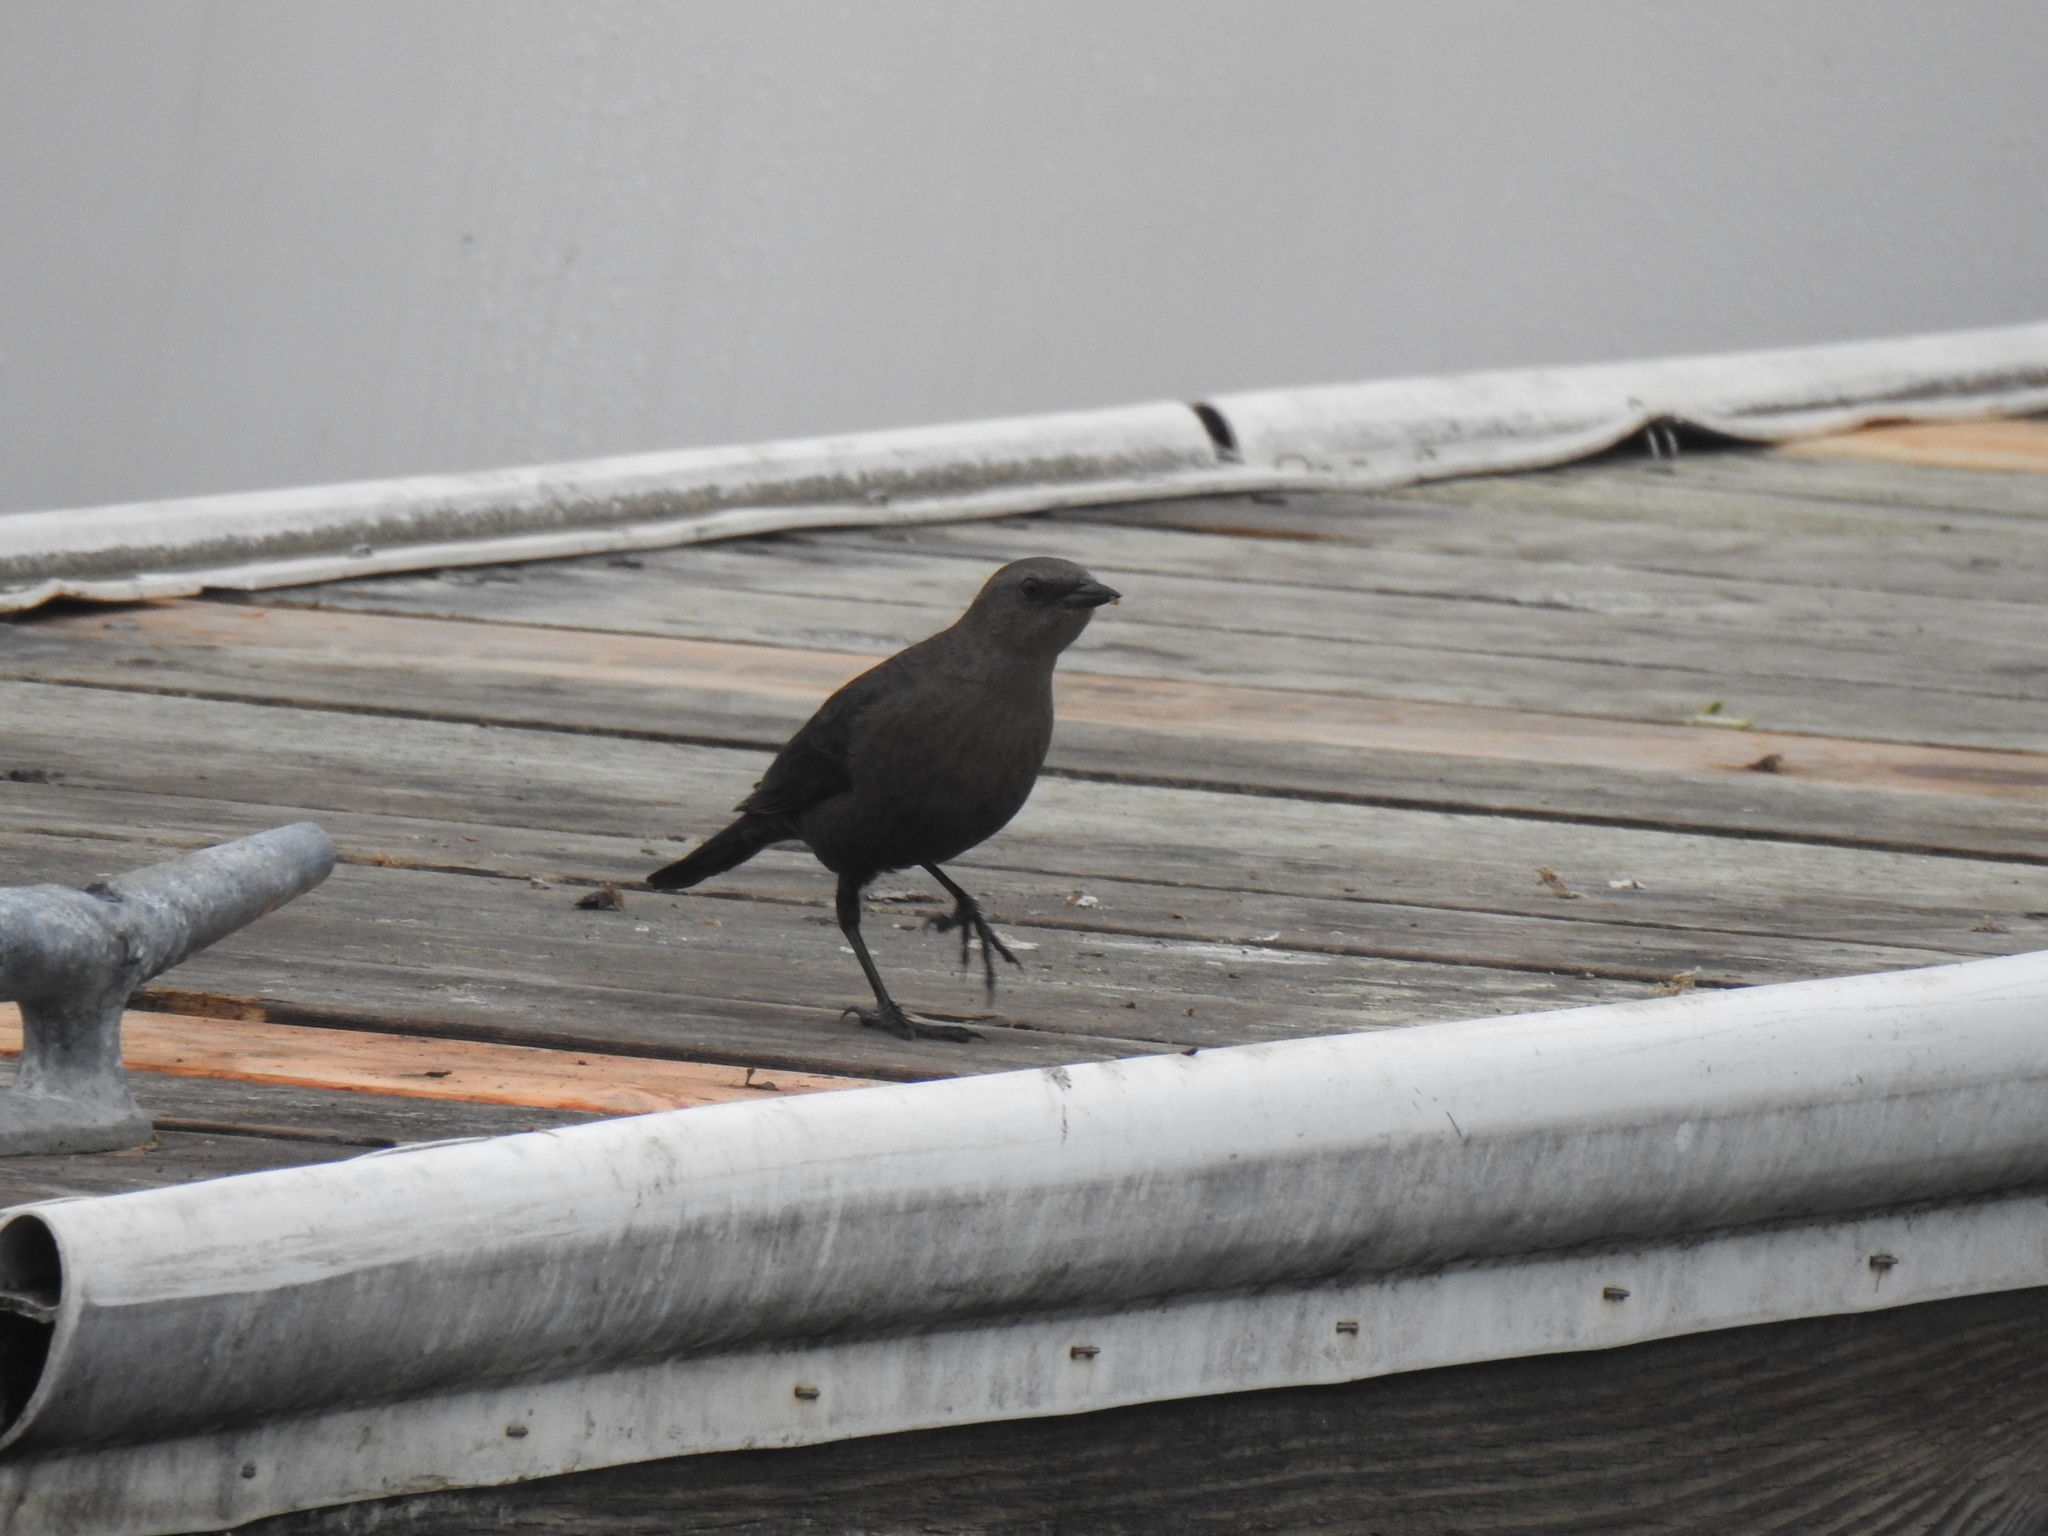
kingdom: Animalia
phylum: Chordata
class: Aves
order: Passeriformes
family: Icteridae
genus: Euphagus
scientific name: Euphagus cyanocephalus
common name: Brewer's blackbird
